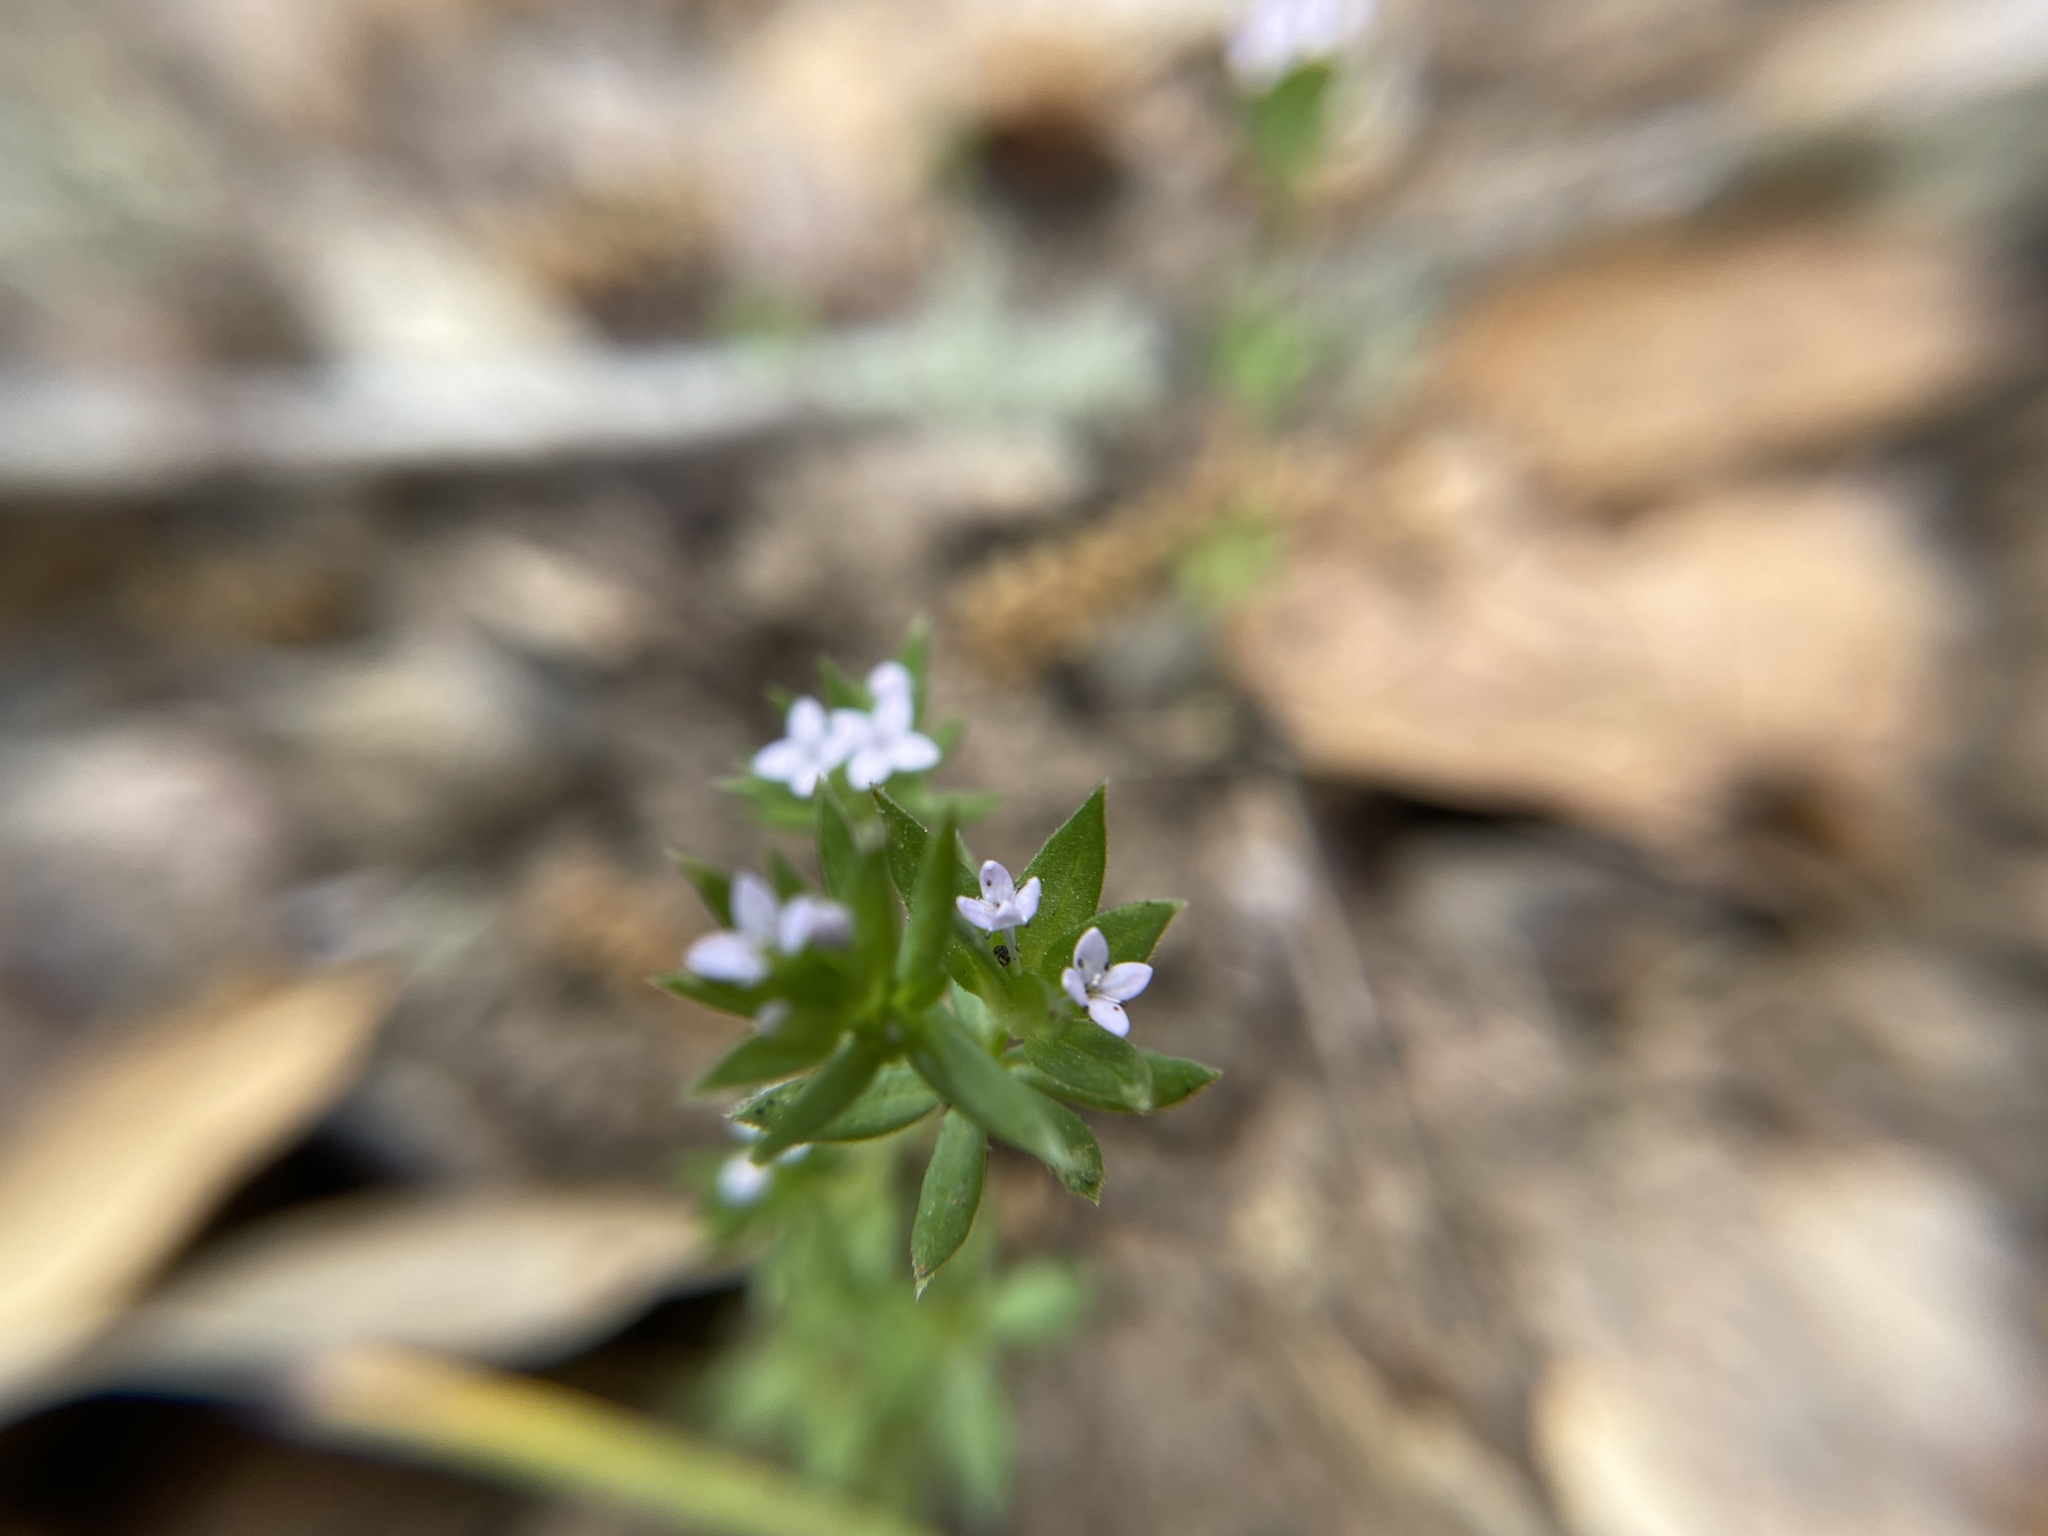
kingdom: Plantae
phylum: Tracheophyta
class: Magnoliopsida
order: Gentianales
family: Rubiaceae
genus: Sherardia
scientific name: Sherardia arvensis
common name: Field madder
